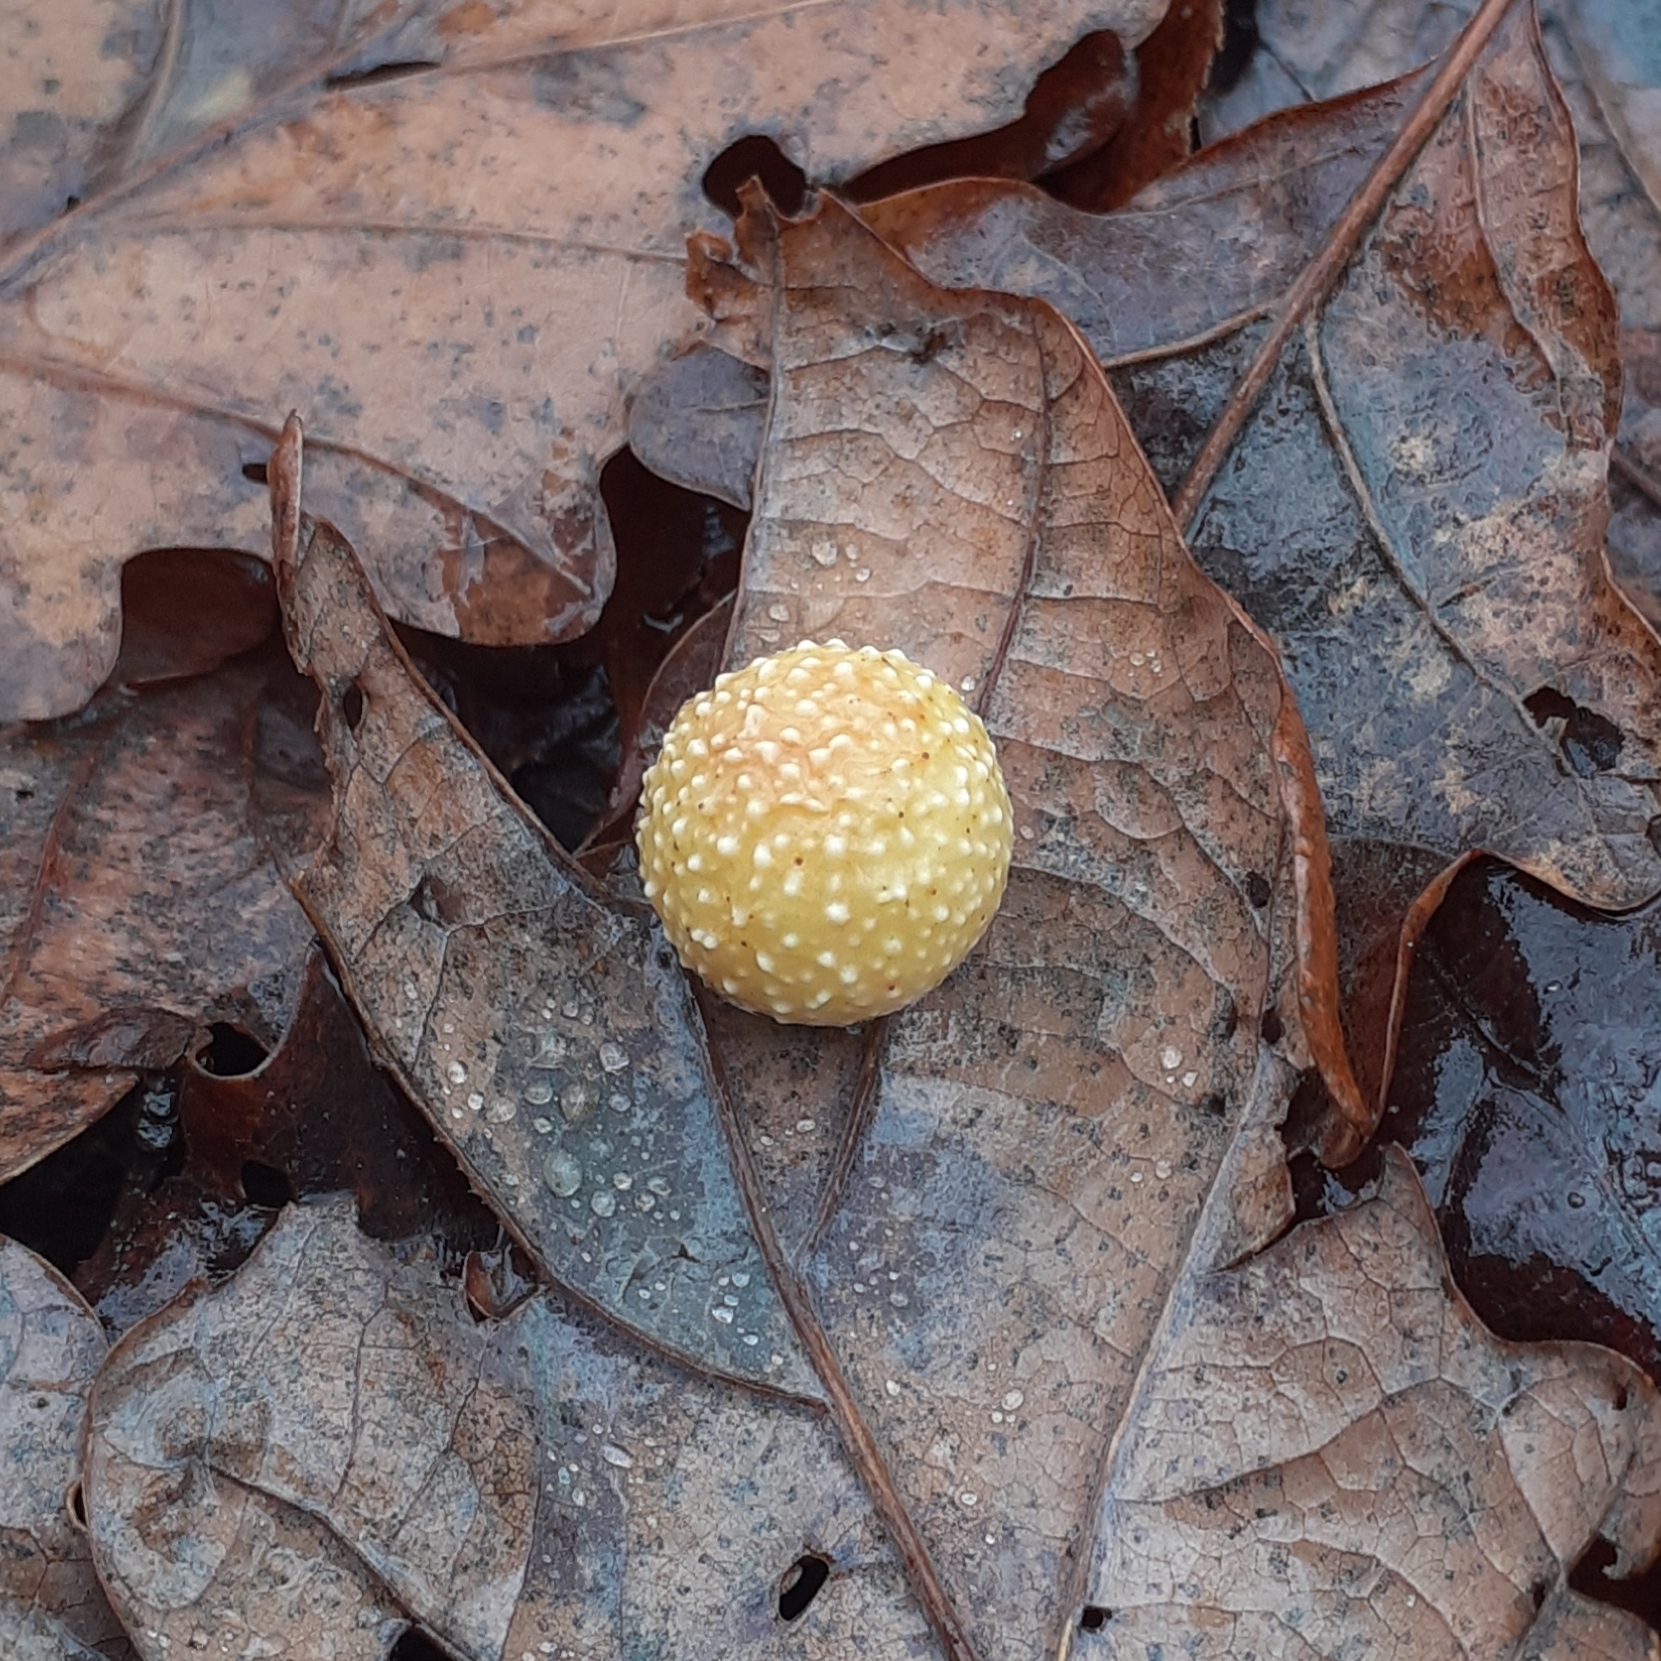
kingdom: Animalia
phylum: Arthropoda
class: Insecta
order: Hymenoptera
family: Cynipidae
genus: Cynips
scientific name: Cynips quercusfolii
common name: Cherry gall
